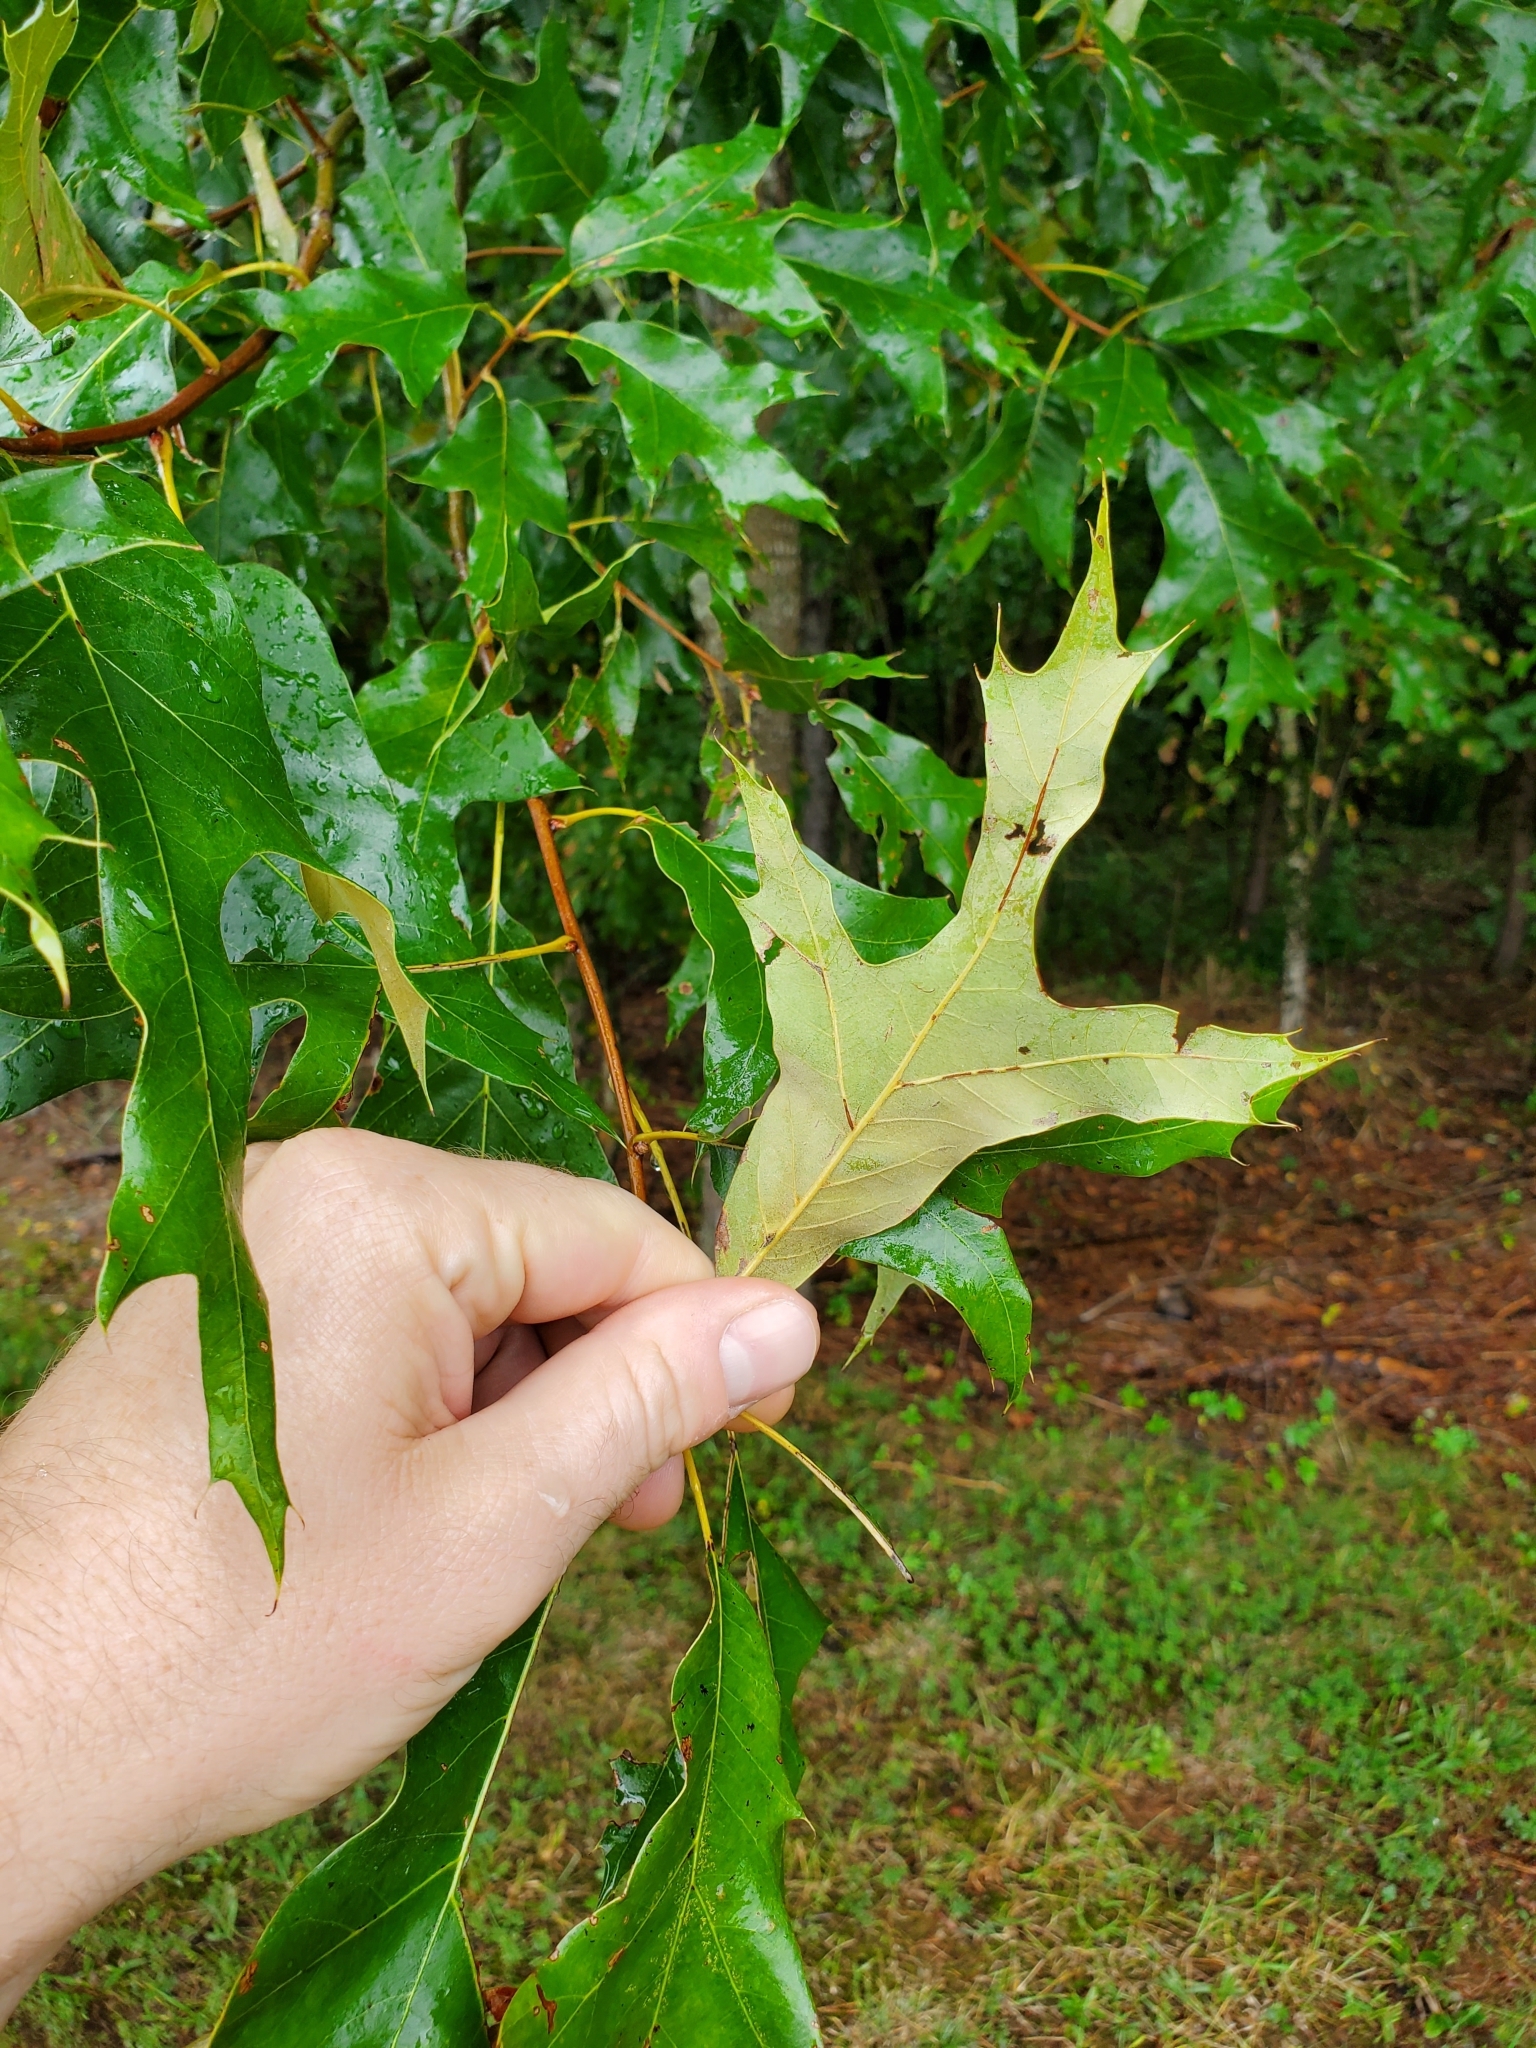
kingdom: Plantae
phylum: Tracheophyta
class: Magnoliopsida
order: Fagales
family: Fagaceae
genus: Quercus
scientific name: Quercus falcata
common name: Southern red oak
